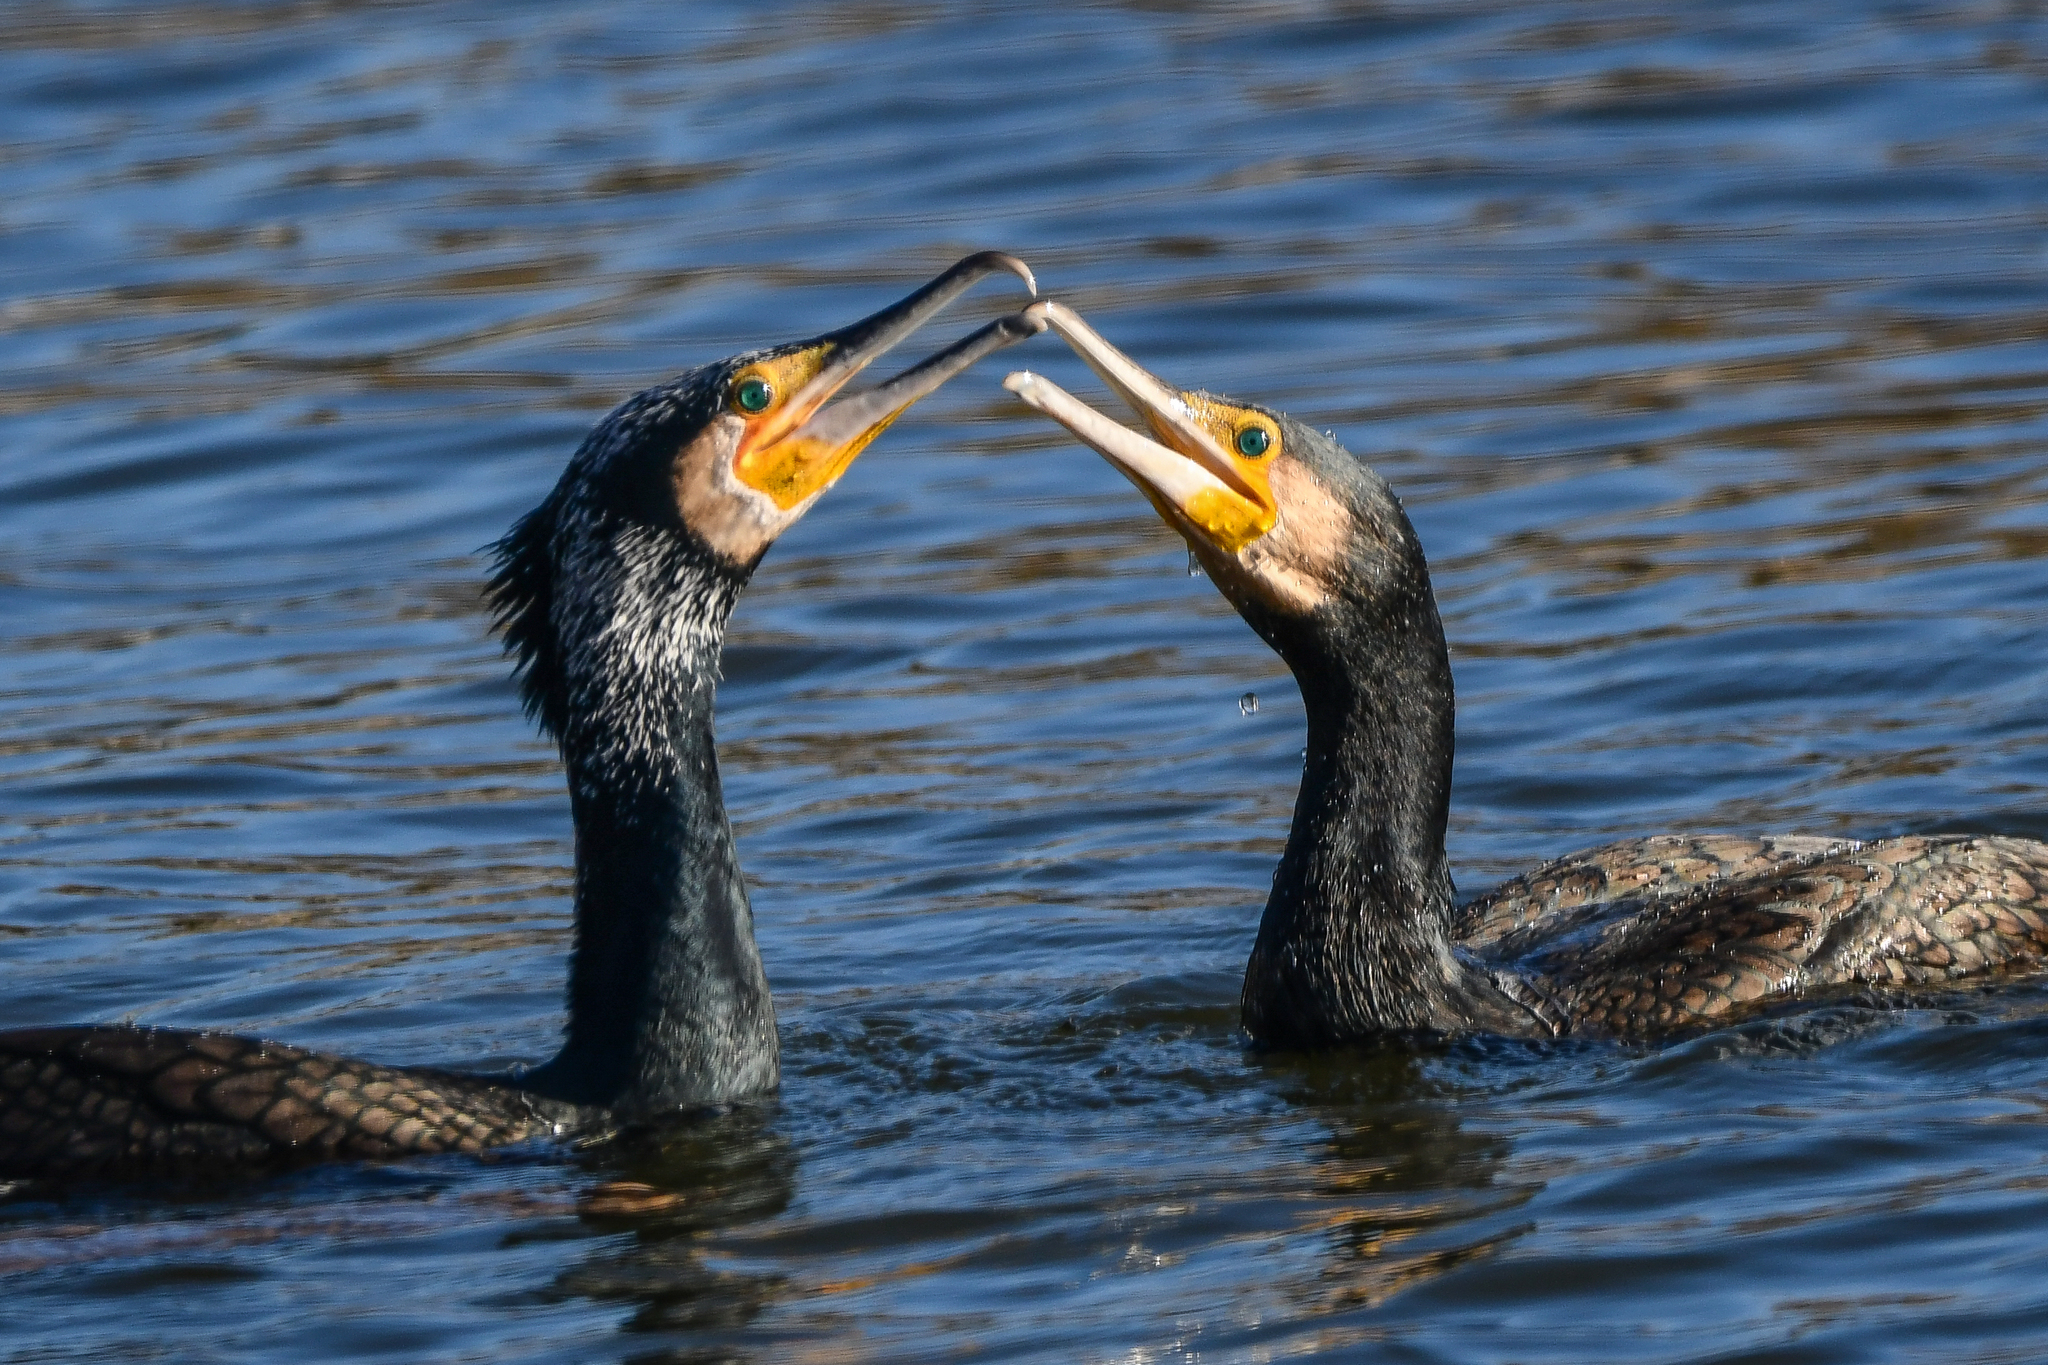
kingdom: Animalia
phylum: Chordata
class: Aves
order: Suliformes
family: Phalacrocoracidae
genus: Phalacrocorax
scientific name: Phalacrocorax carbo
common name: Great cormorant
